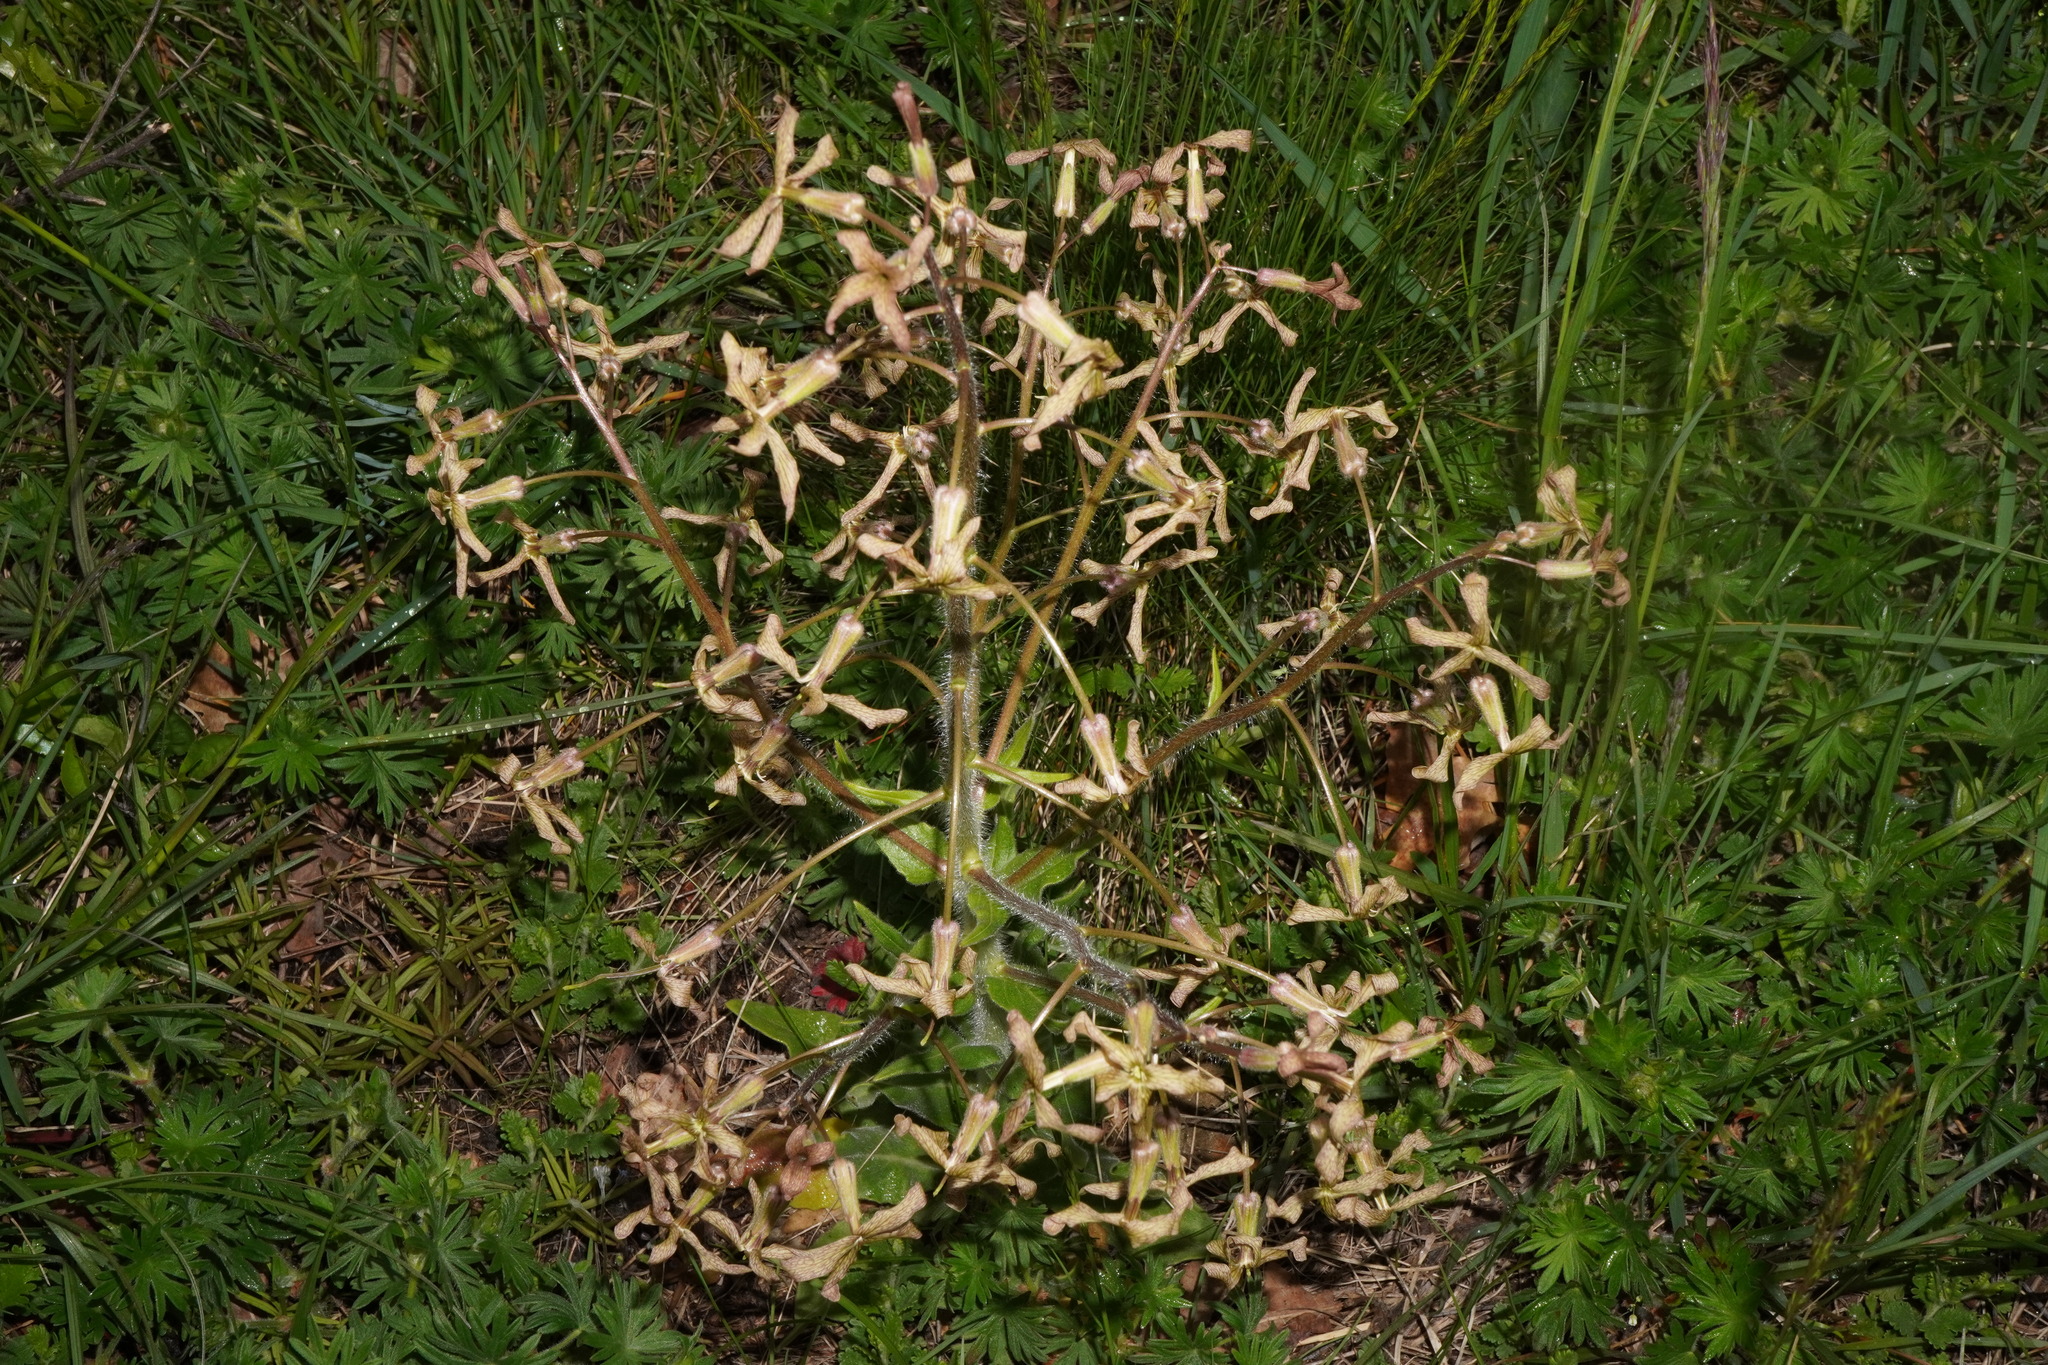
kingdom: Plantae
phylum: Tracheophyta
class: Magnoliopsida
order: Brassicales
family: Brassicaceae
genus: Hesperis
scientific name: Hesperis tristis
